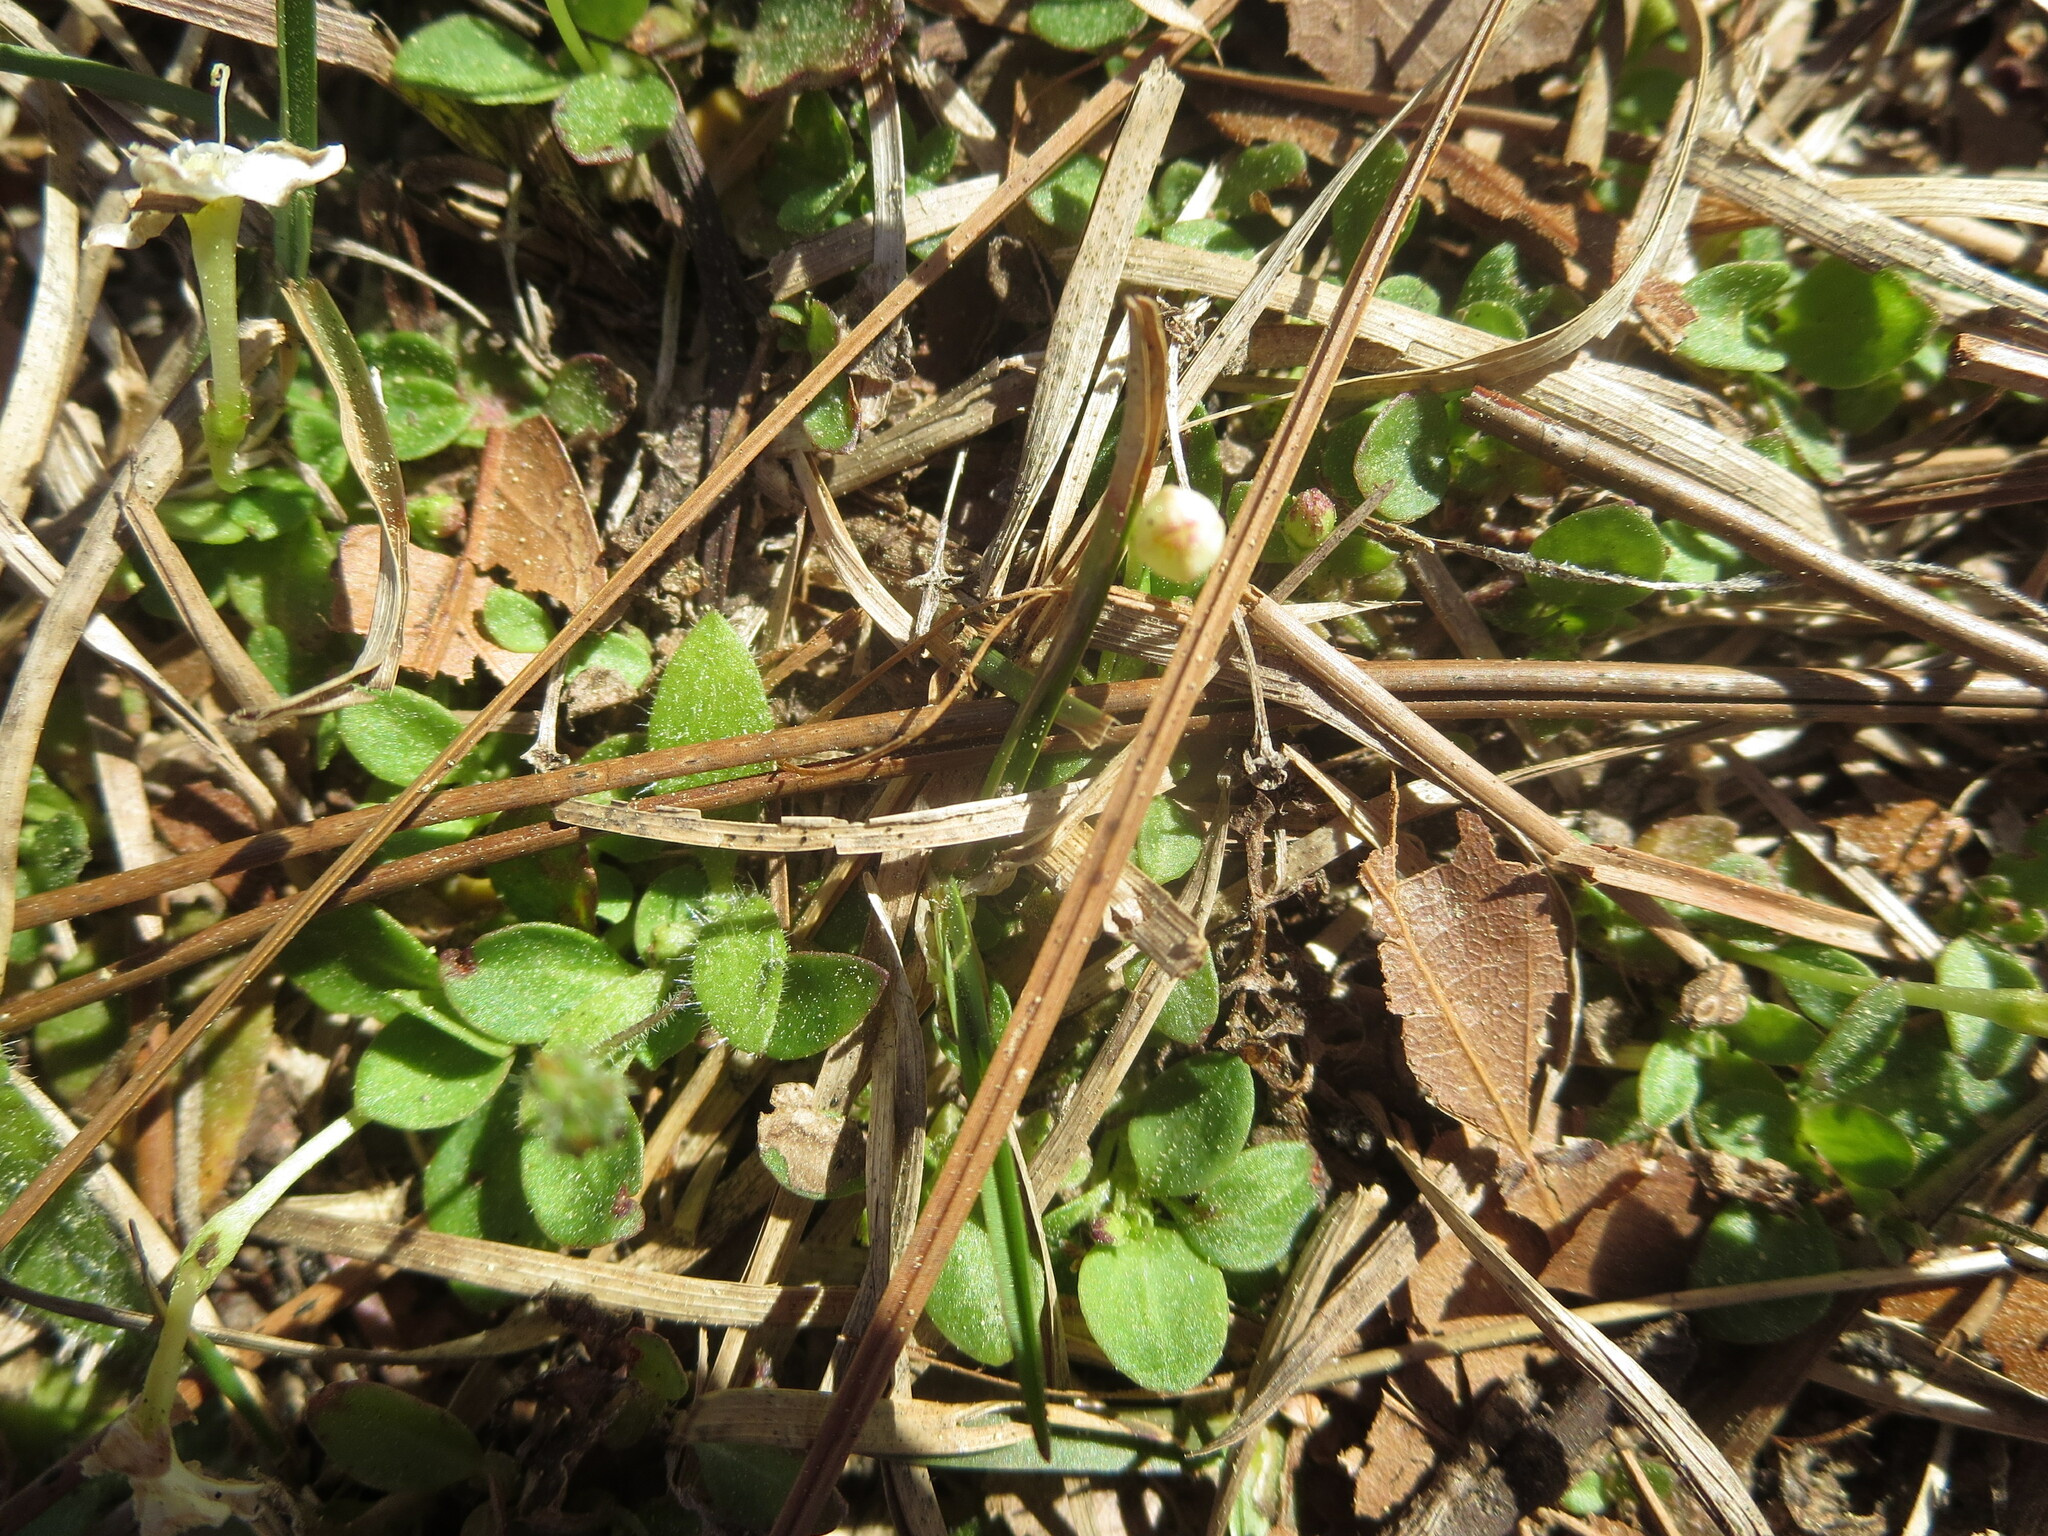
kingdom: Plantae
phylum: Tracheophyta
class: Magnoliopsida
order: Gentianales
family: Rubiaceae
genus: Houstonia
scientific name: Houstonia procumbens
